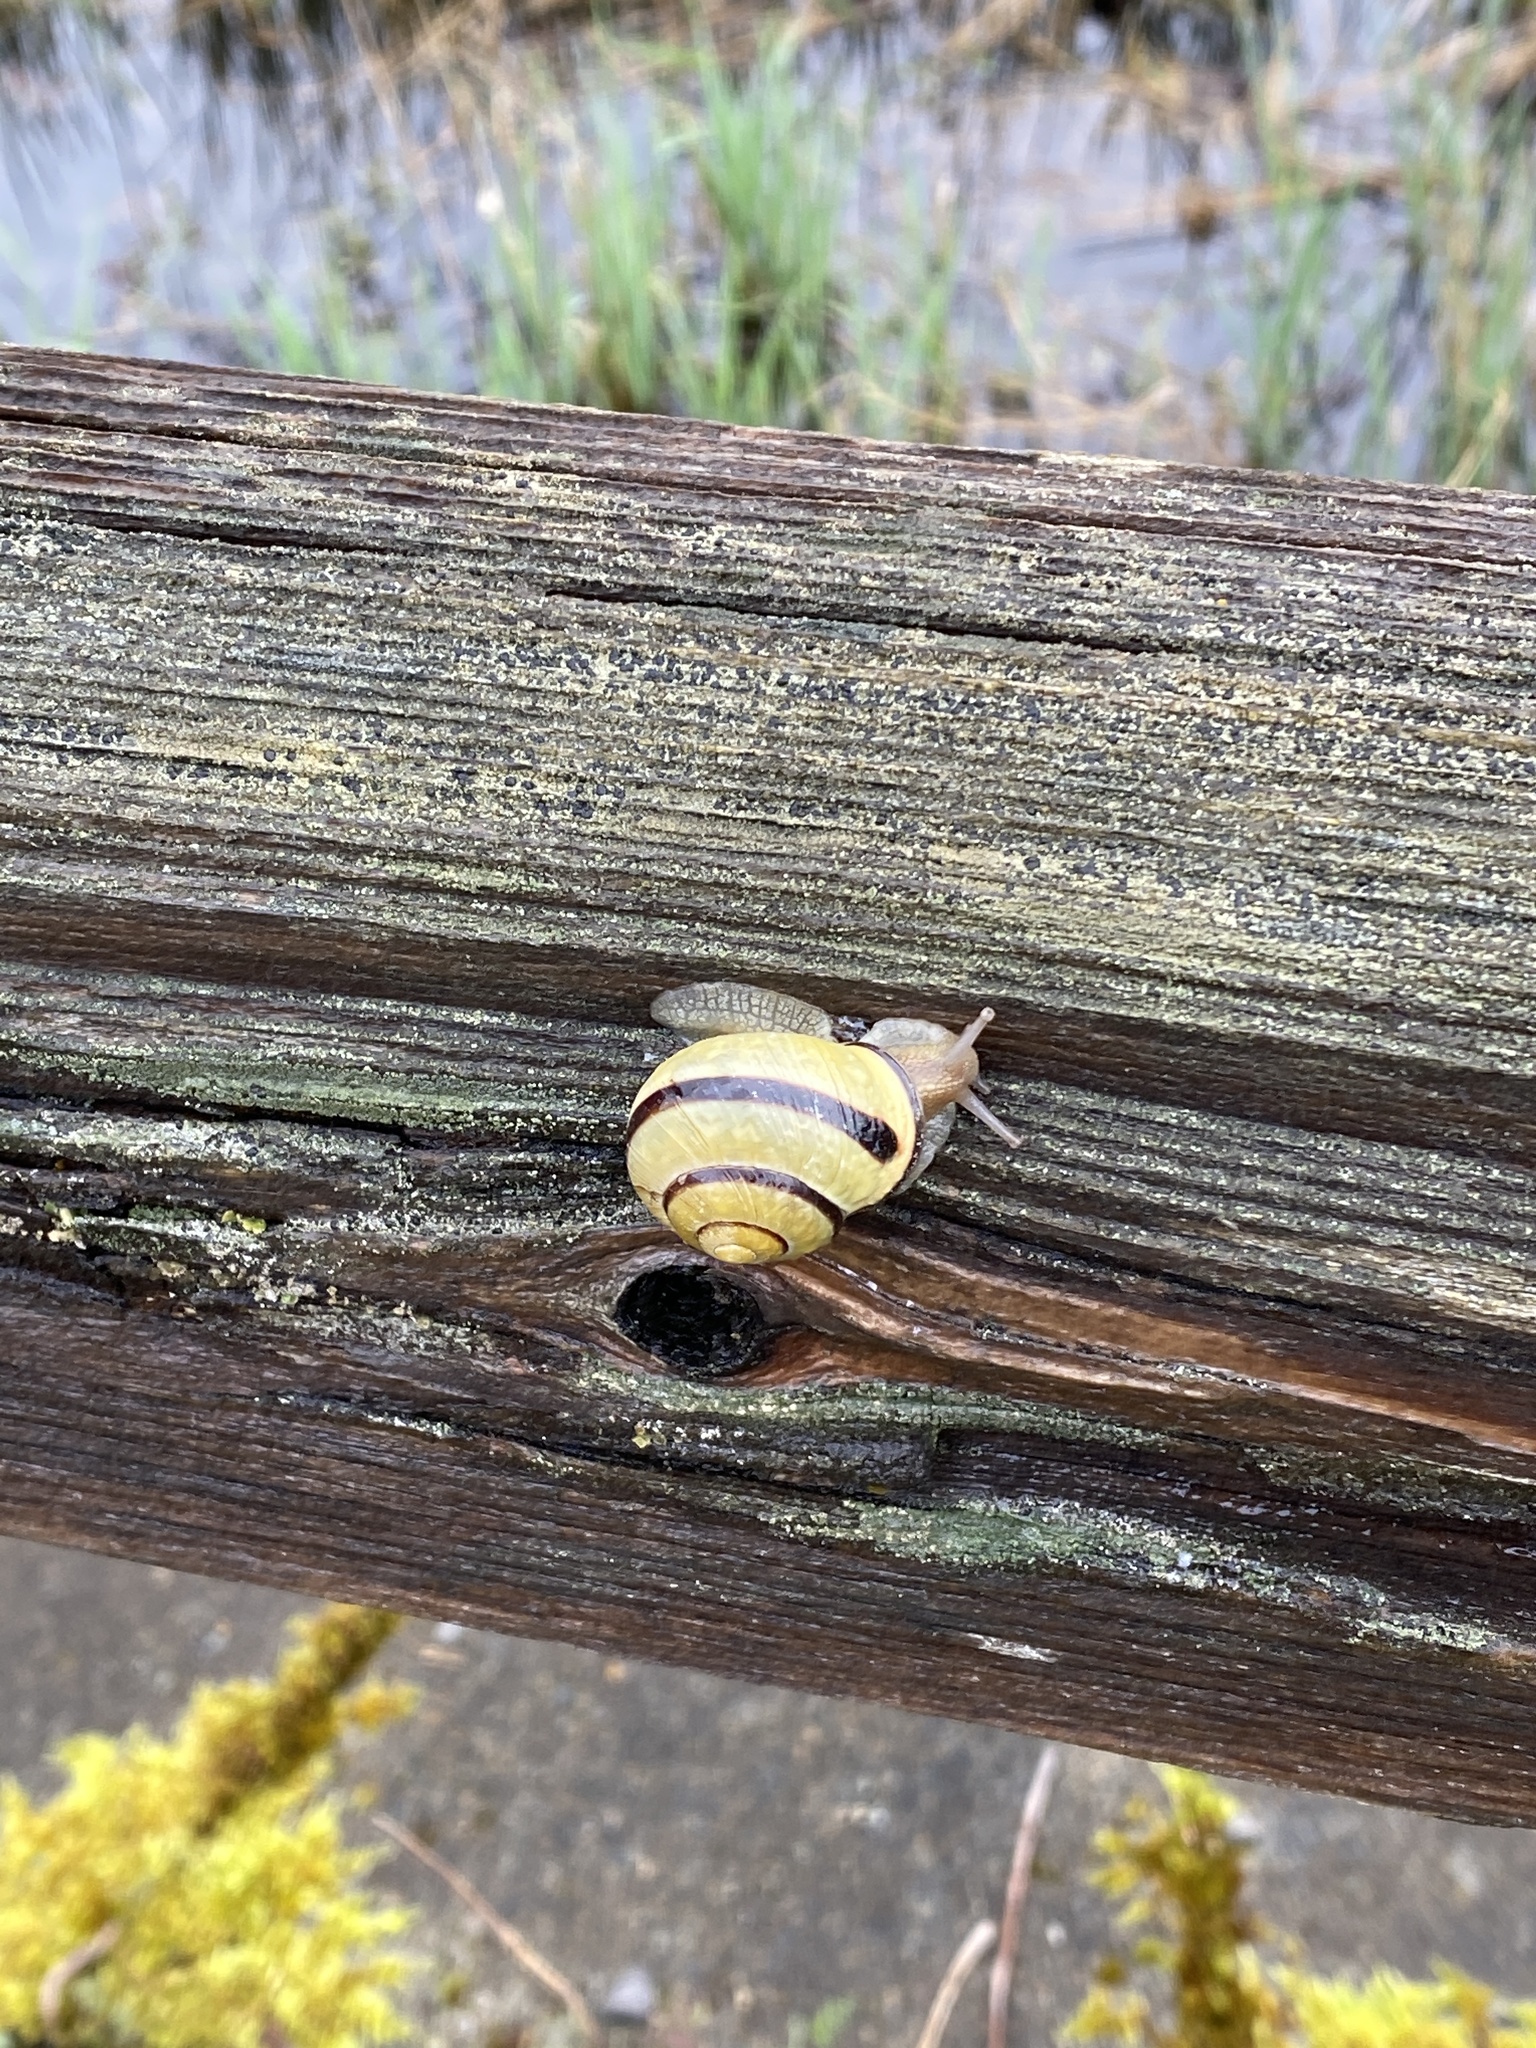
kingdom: Animalia
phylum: Mollusca
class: Gastropoda
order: Stylommatophora
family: Helicidae
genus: Cepaea
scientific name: Cepaea nemoralis
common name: Grovesnail
